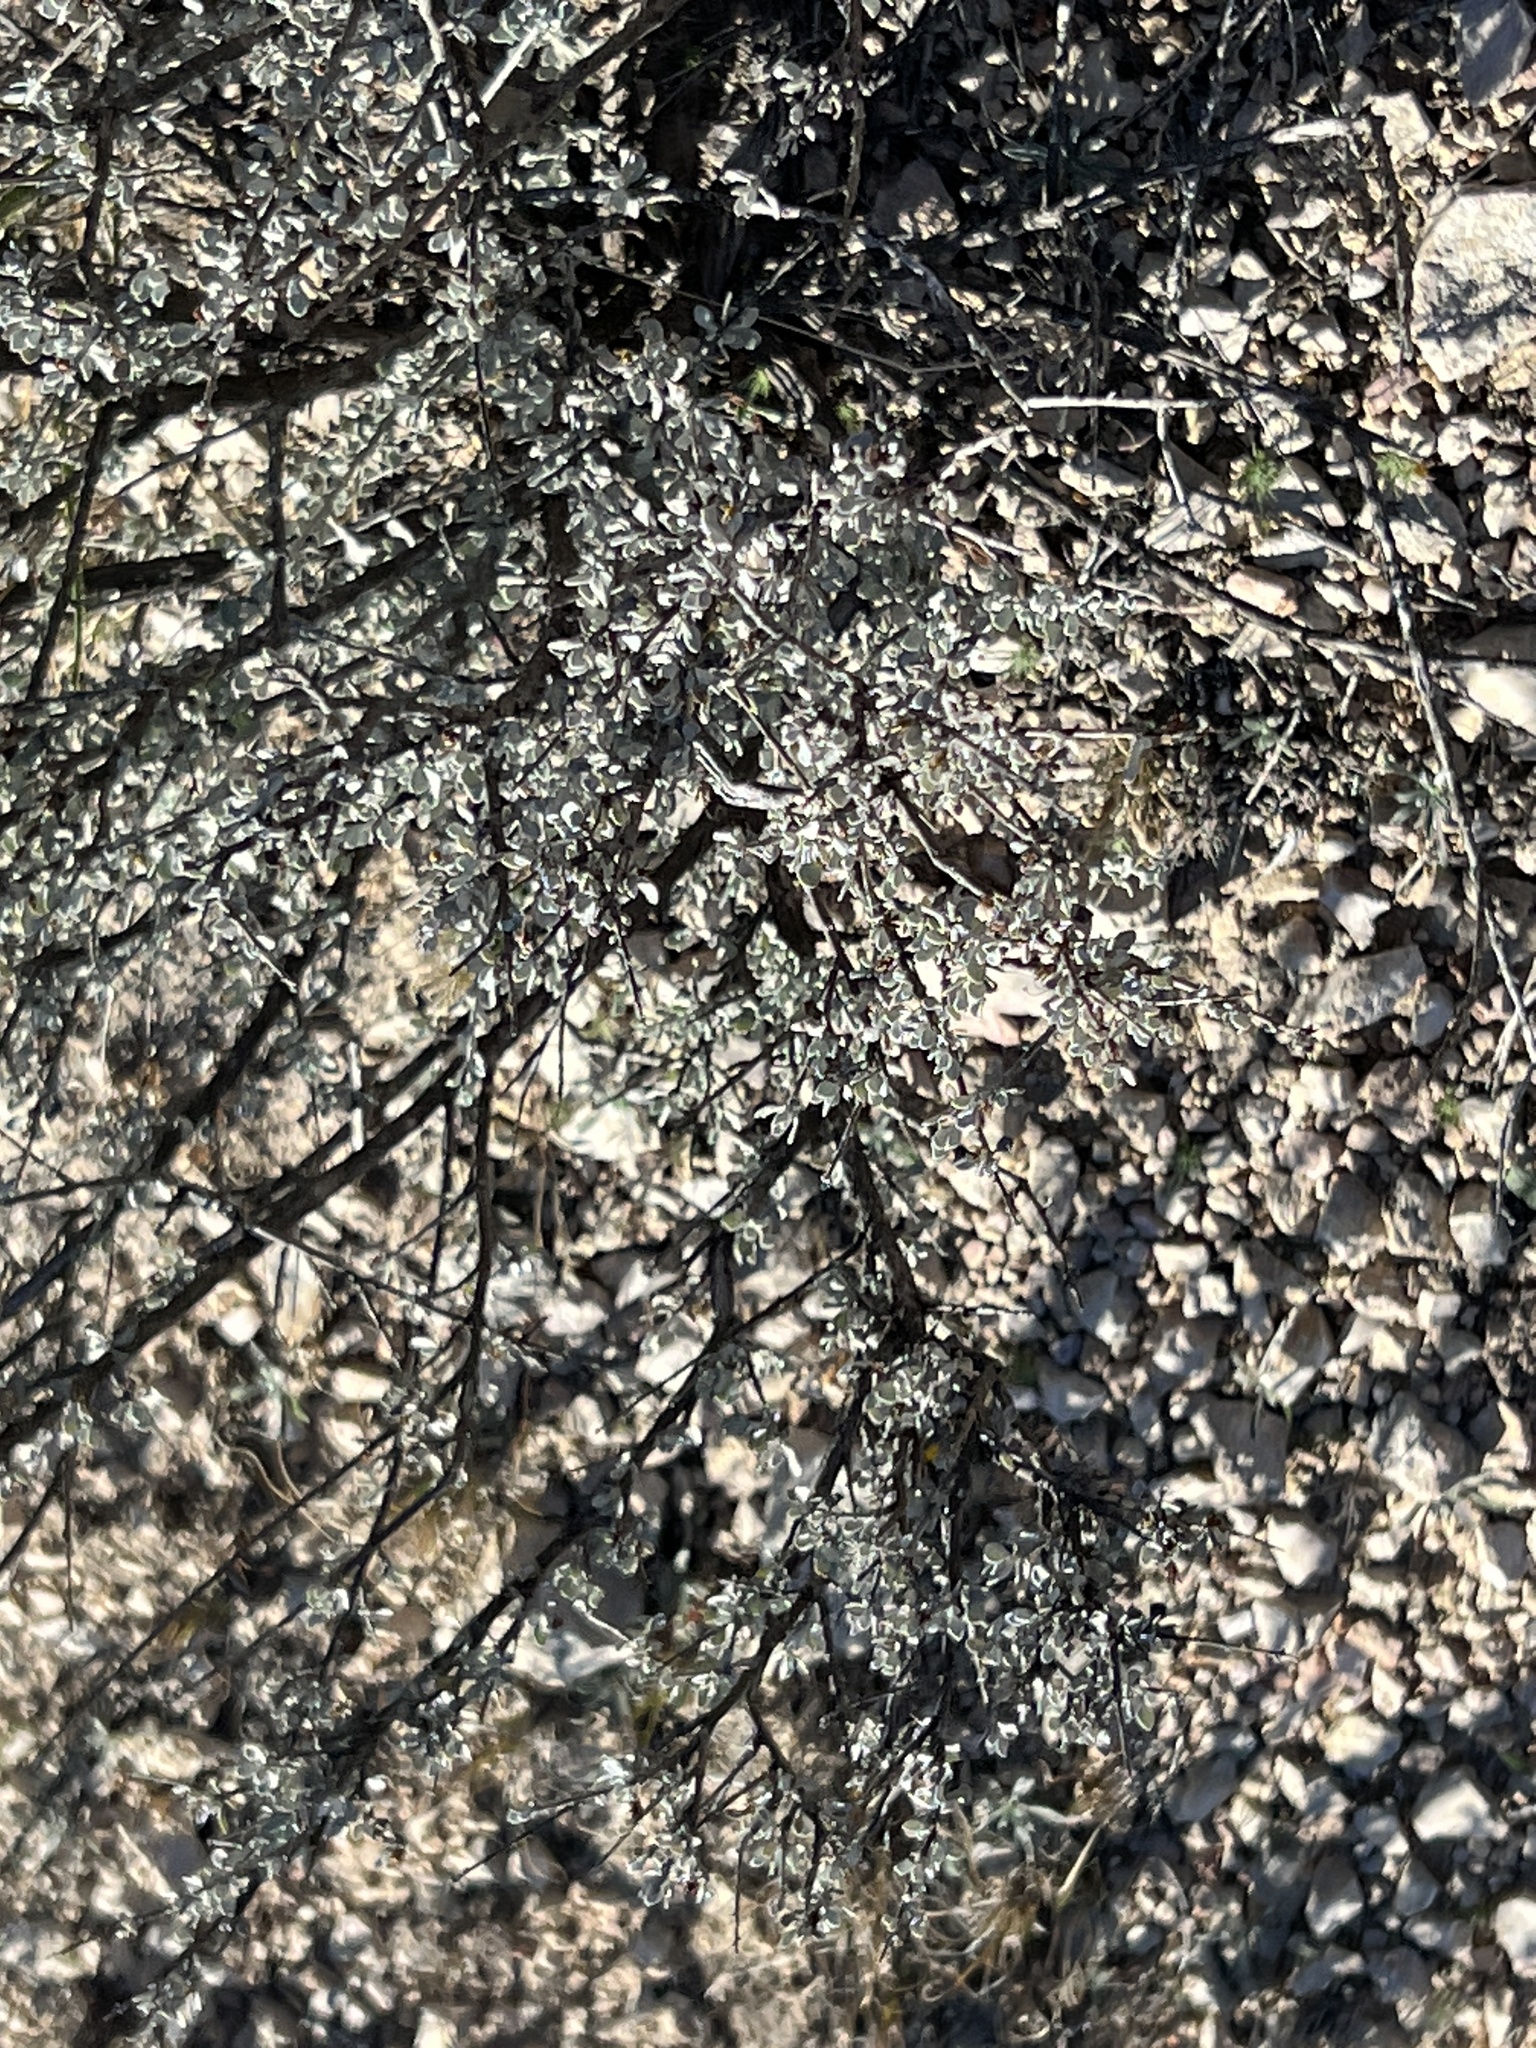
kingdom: Plantae
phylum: Tracheophyta
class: Magnoliopsida
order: Lamiales
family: Scrophulariaceae
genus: Leucophyllum
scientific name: Leucophyllum minus
